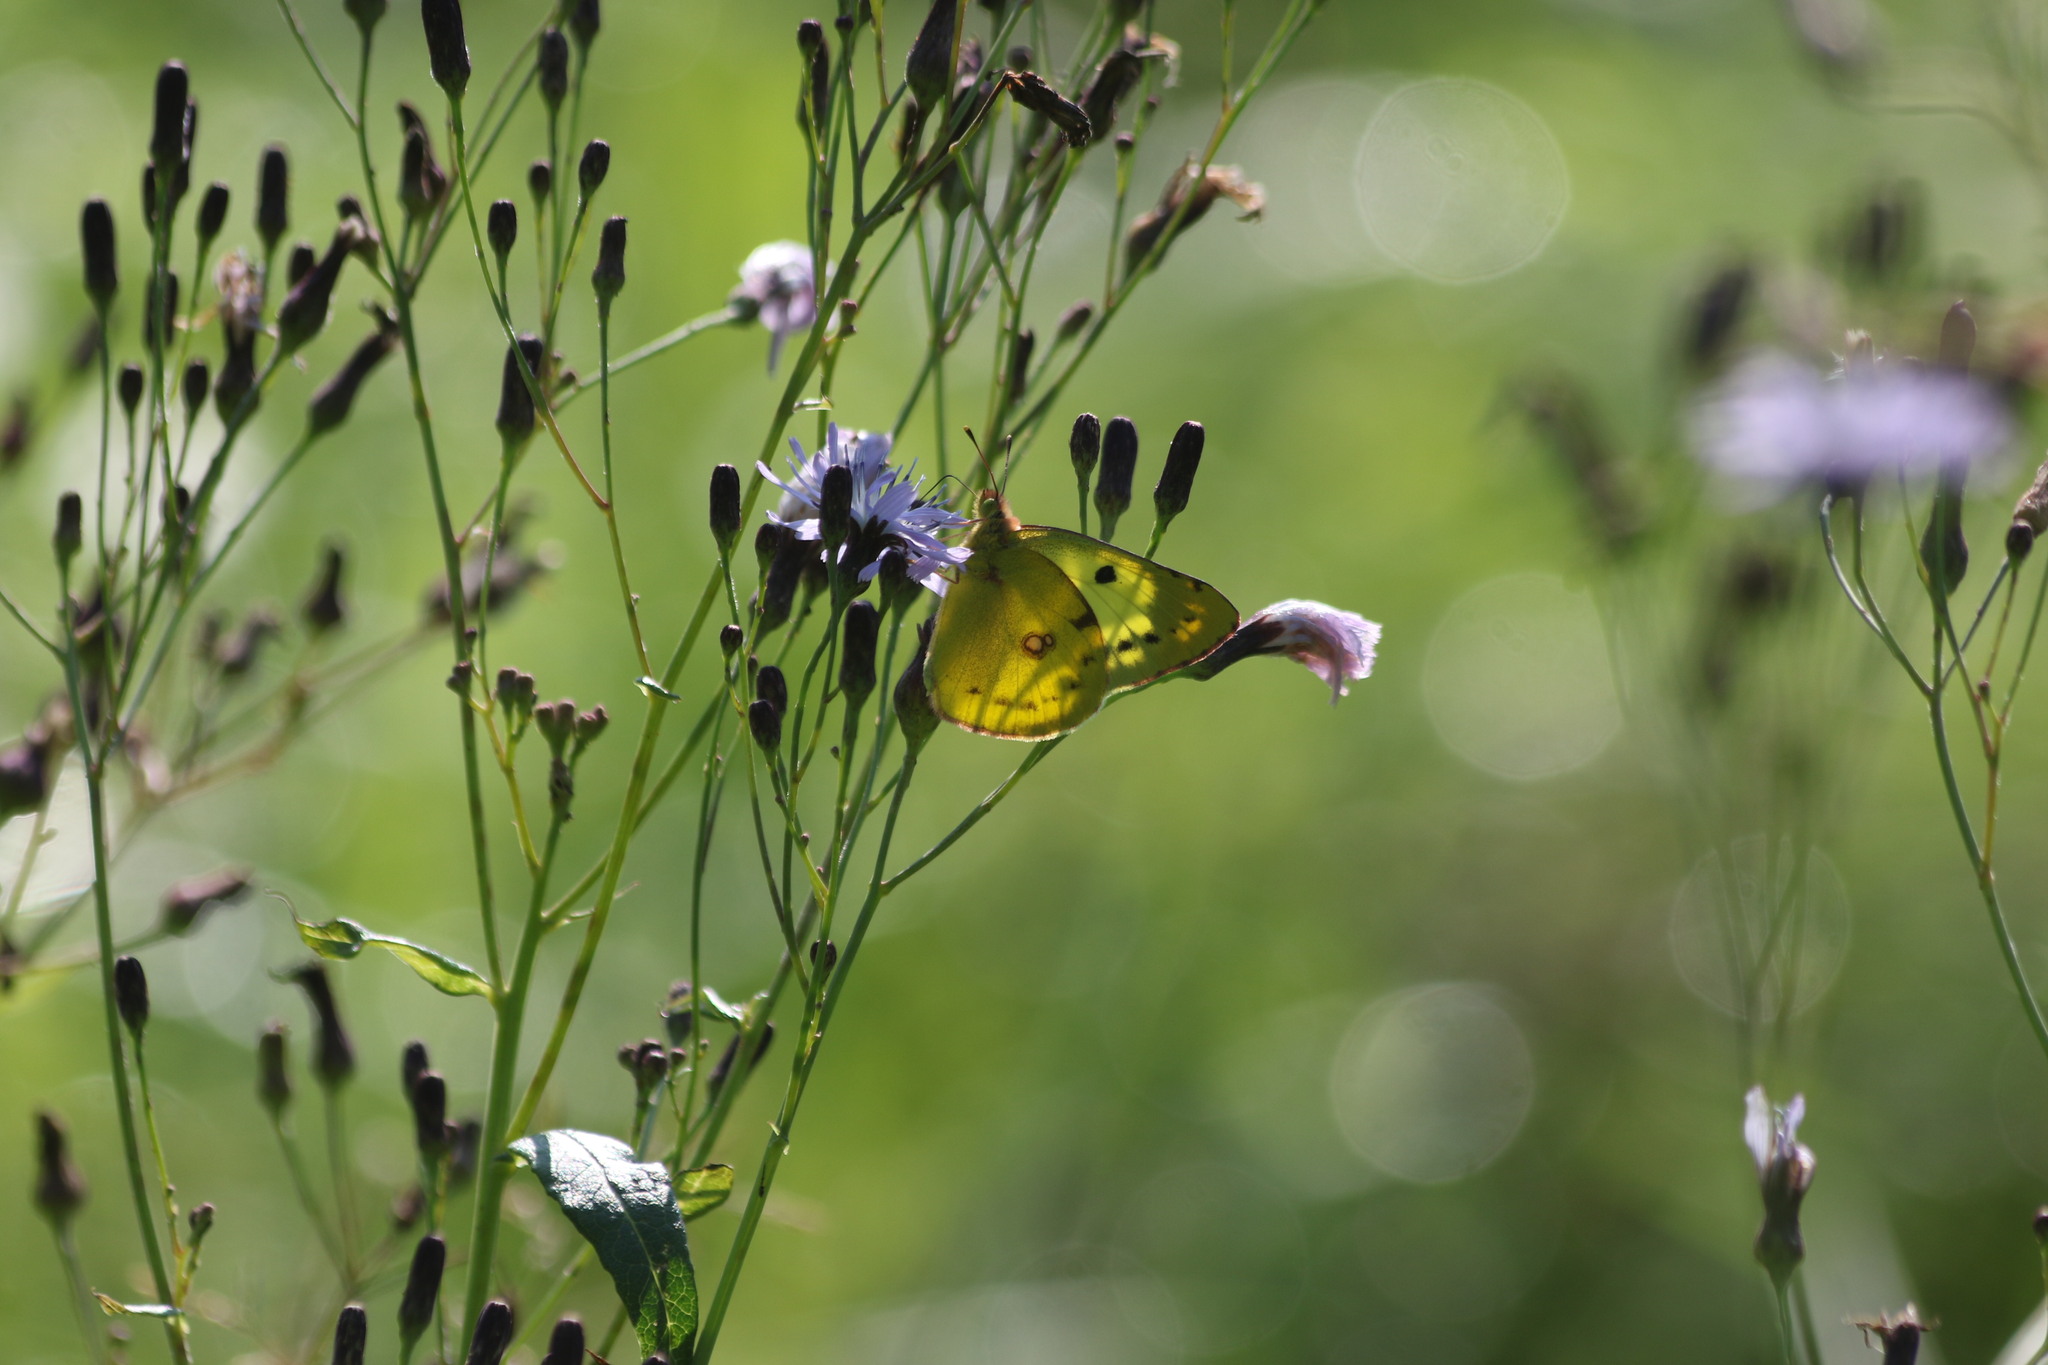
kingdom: Animalia
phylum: Arthropoda
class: Insecta
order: Lepidoptera
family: Pieridae
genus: Colias
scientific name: Colias hyale
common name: Pale clouded yellow
